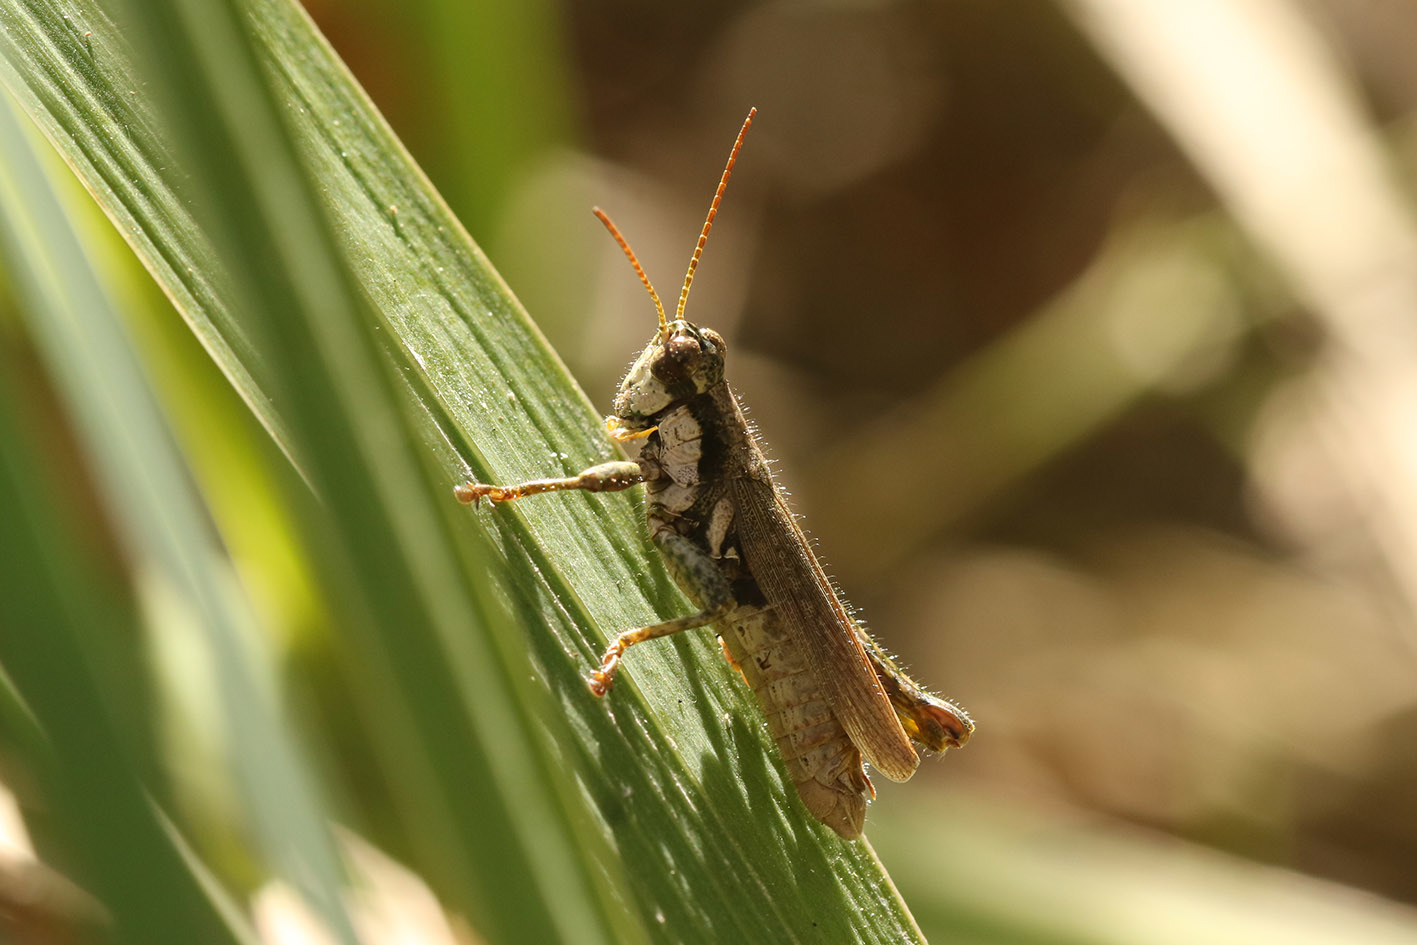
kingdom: Animalia
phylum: Arthropoda
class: Insecta
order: Orthoptera
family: Acrididae
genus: Ronderosia
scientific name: Ronderosia bergii
